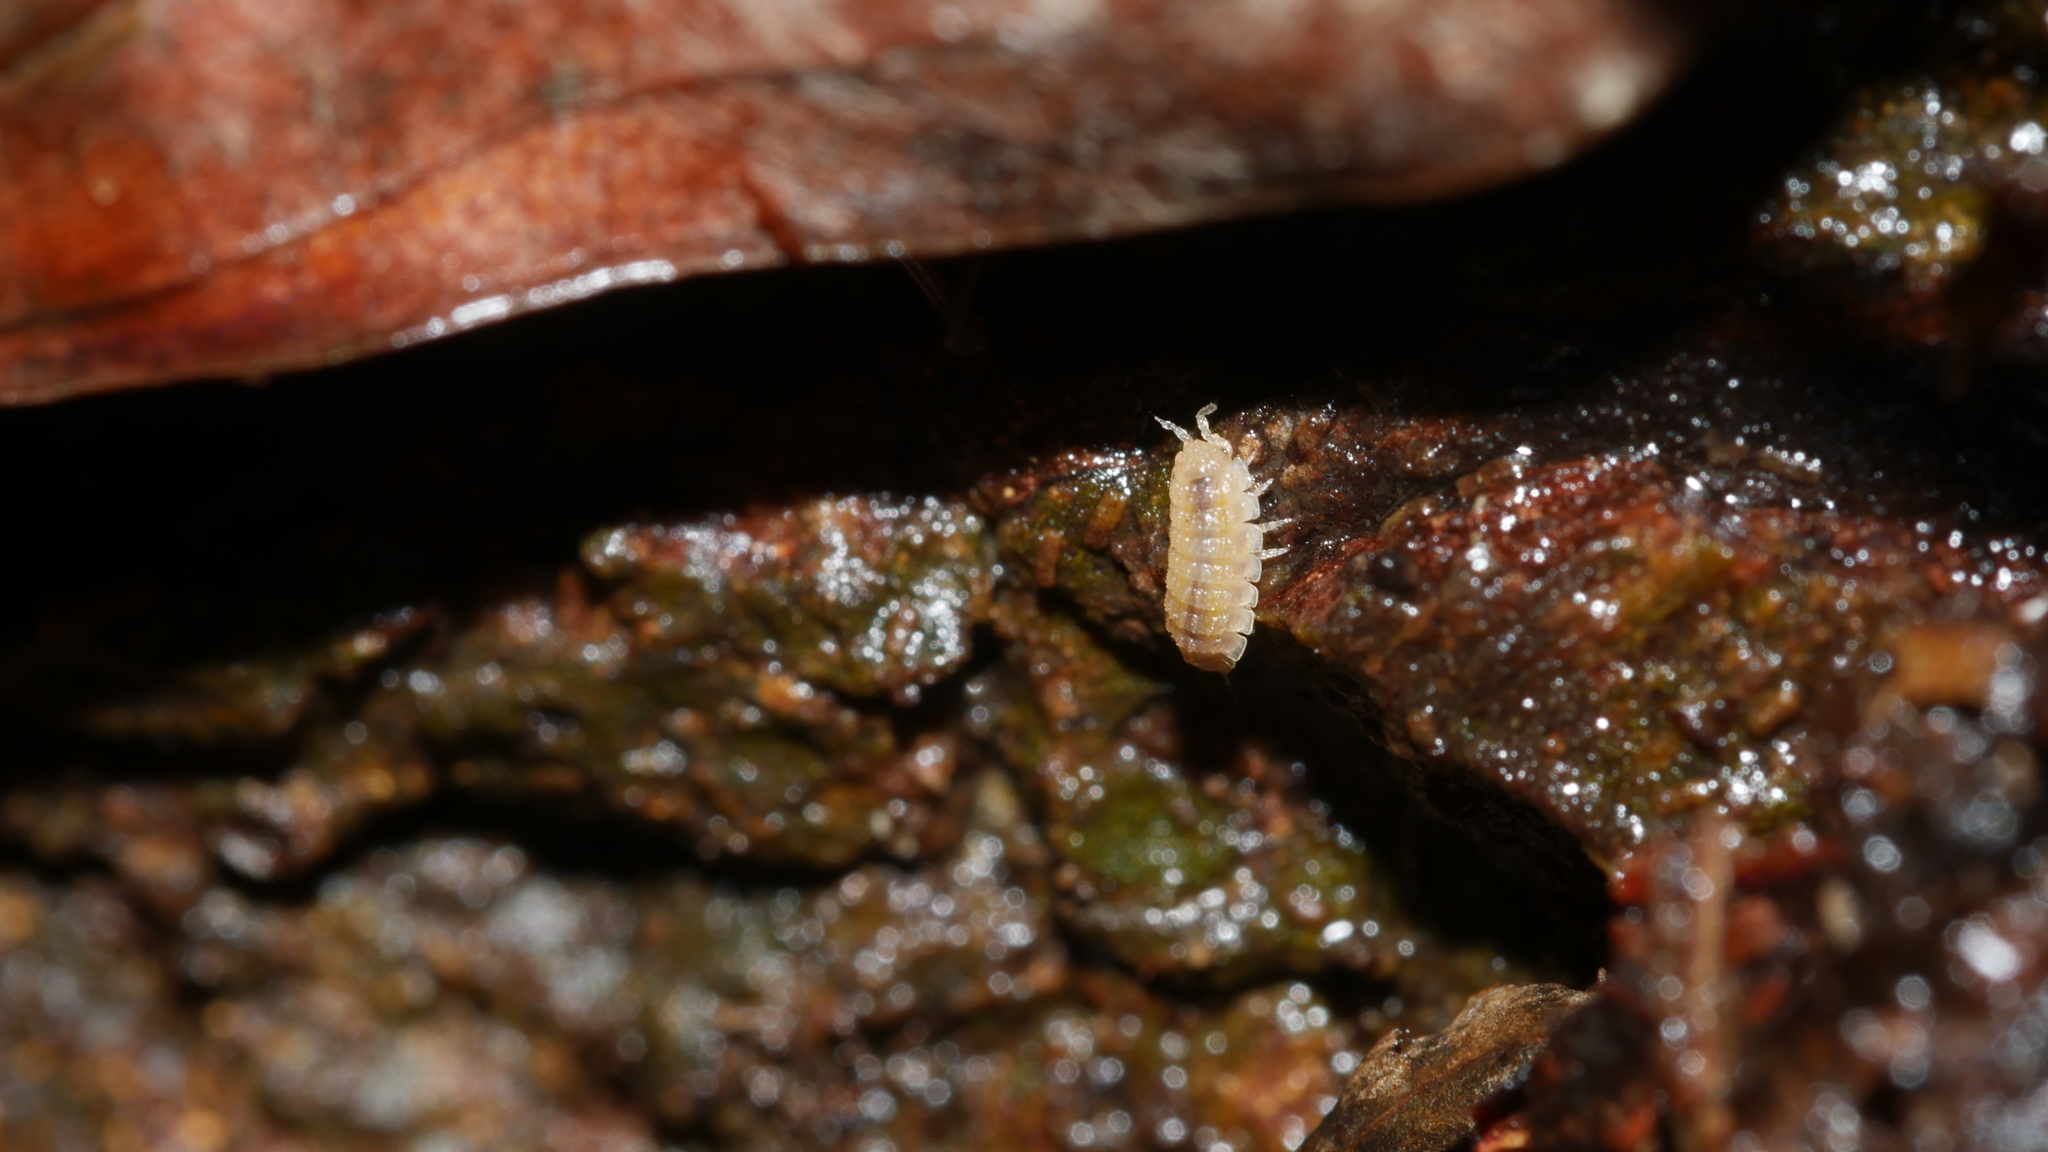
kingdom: Animalia
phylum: Arthropoda
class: Malacostraca
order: Isopoda
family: Trichoniscidae
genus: Haplophthalmus
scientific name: Haplophthalmus danicus
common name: Pillbug
